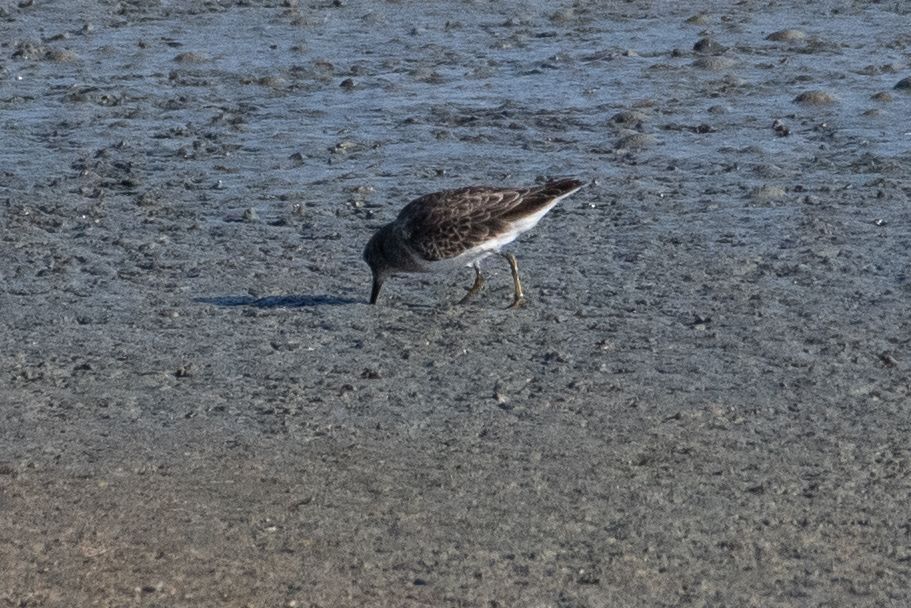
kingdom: Animalia
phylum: Chordata
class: Aves
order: Charadriiformes
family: Scolopacidae
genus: Calidris
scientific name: Calidris minutilla
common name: Least sandpiper
